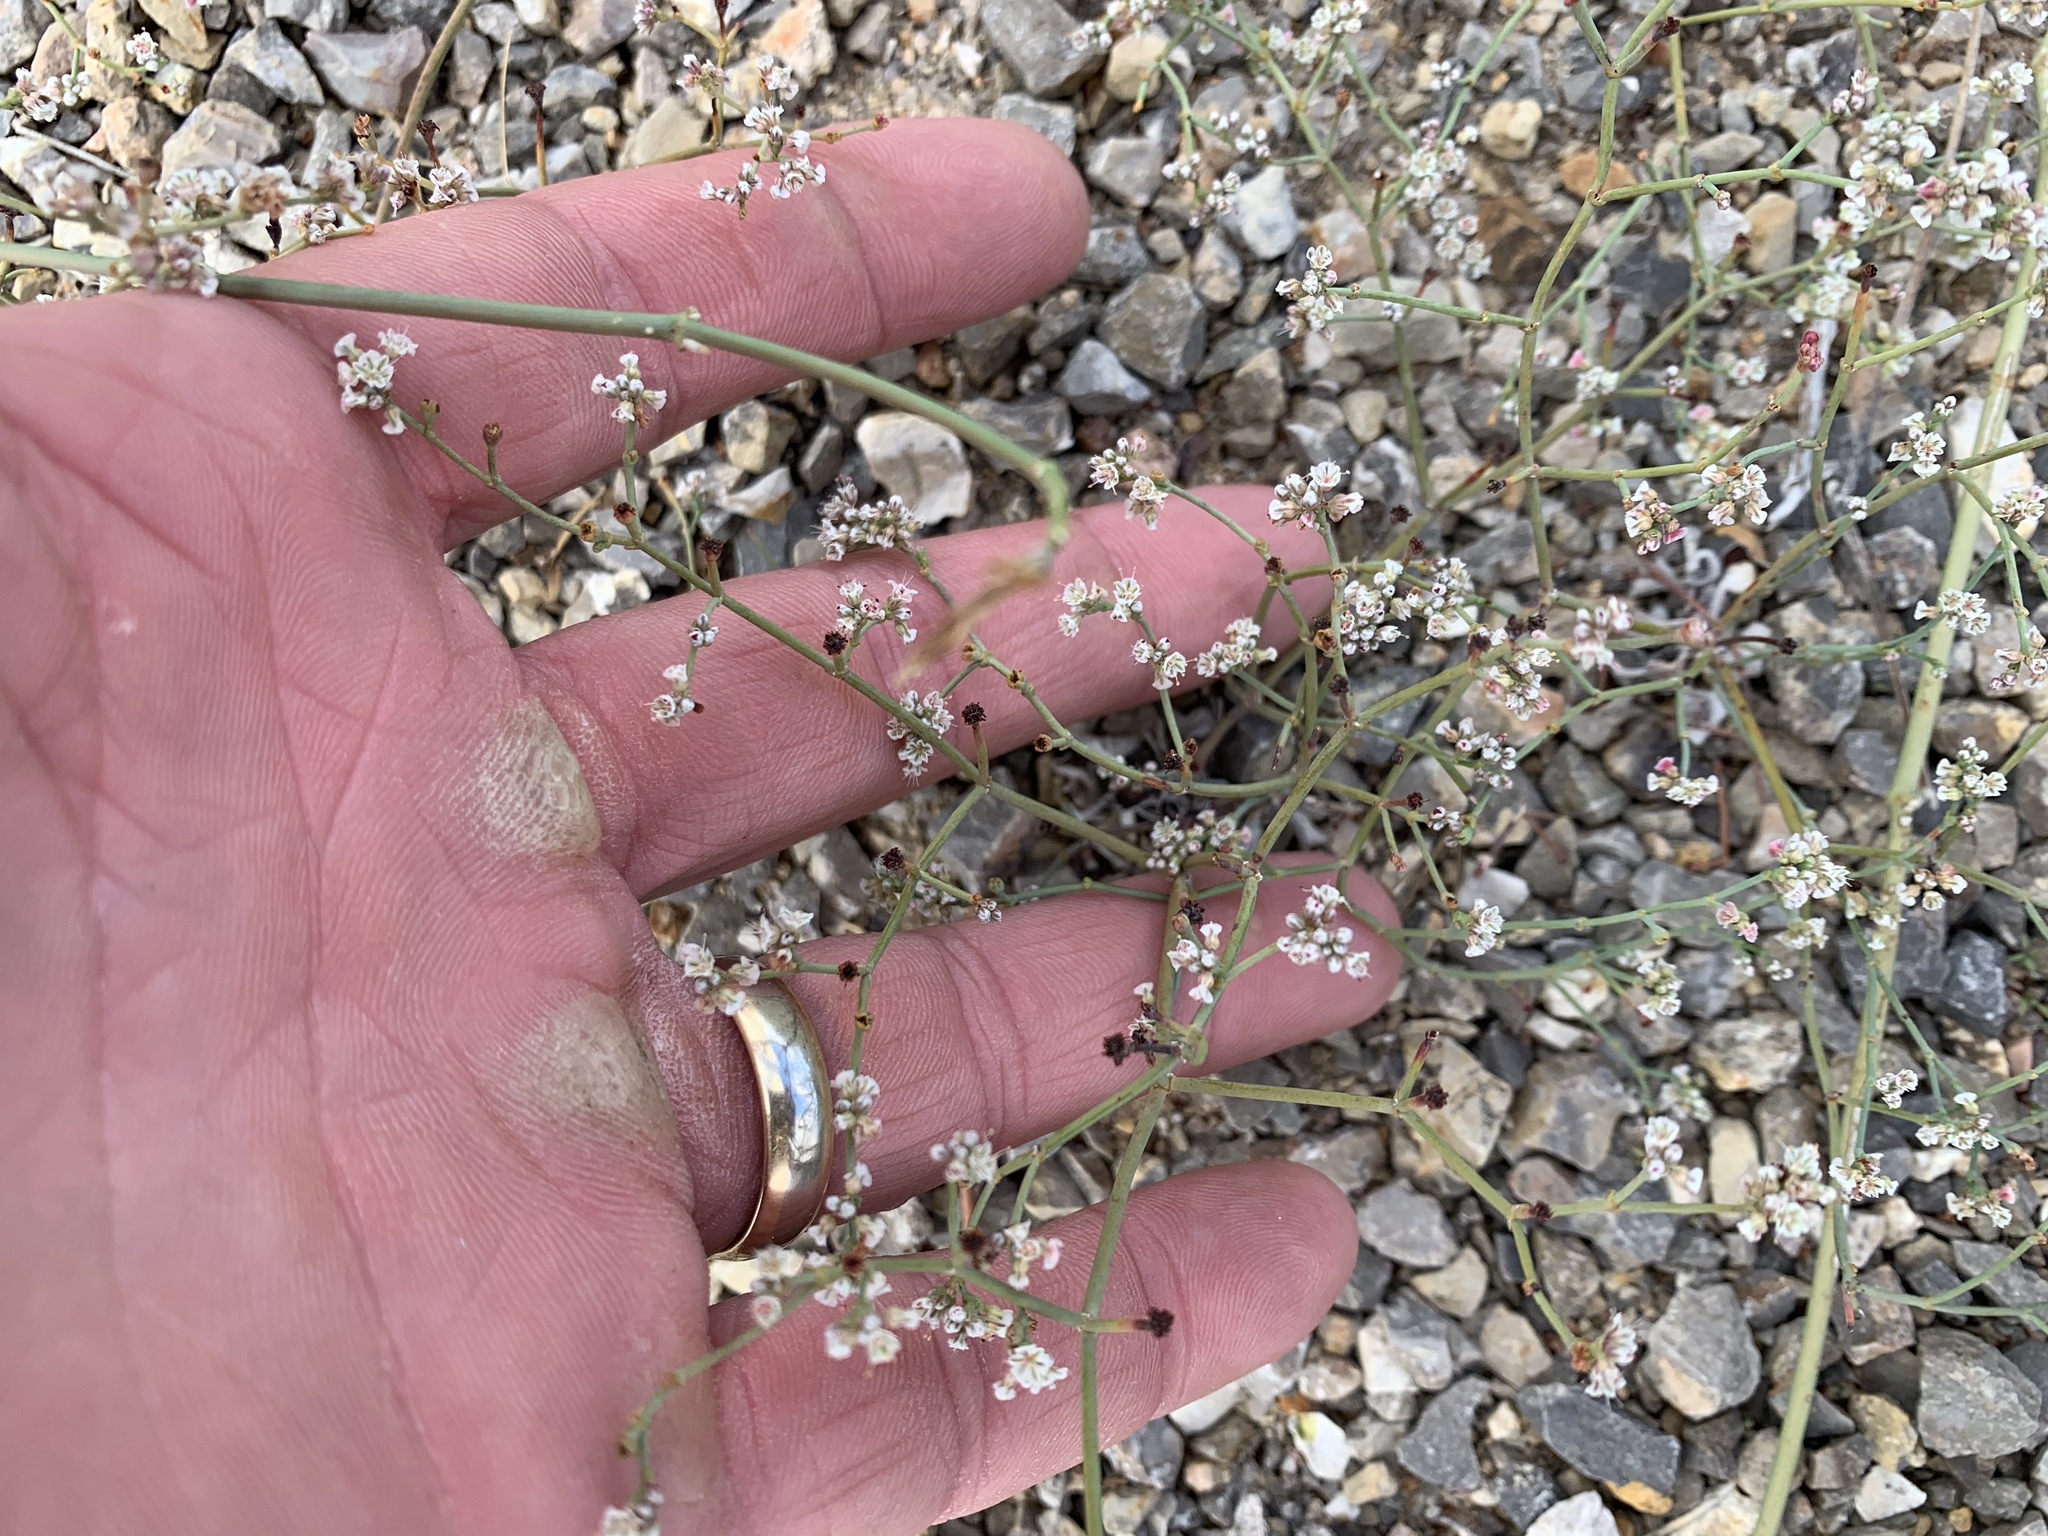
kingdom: Plantae
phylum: Tracheophyta
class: Magnoliopsida
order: Caryophyllales
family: Polygonaceae
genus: Eriogonum
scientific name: Eriogonum rotundifolium
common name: Round-leaf wild buckwheat
